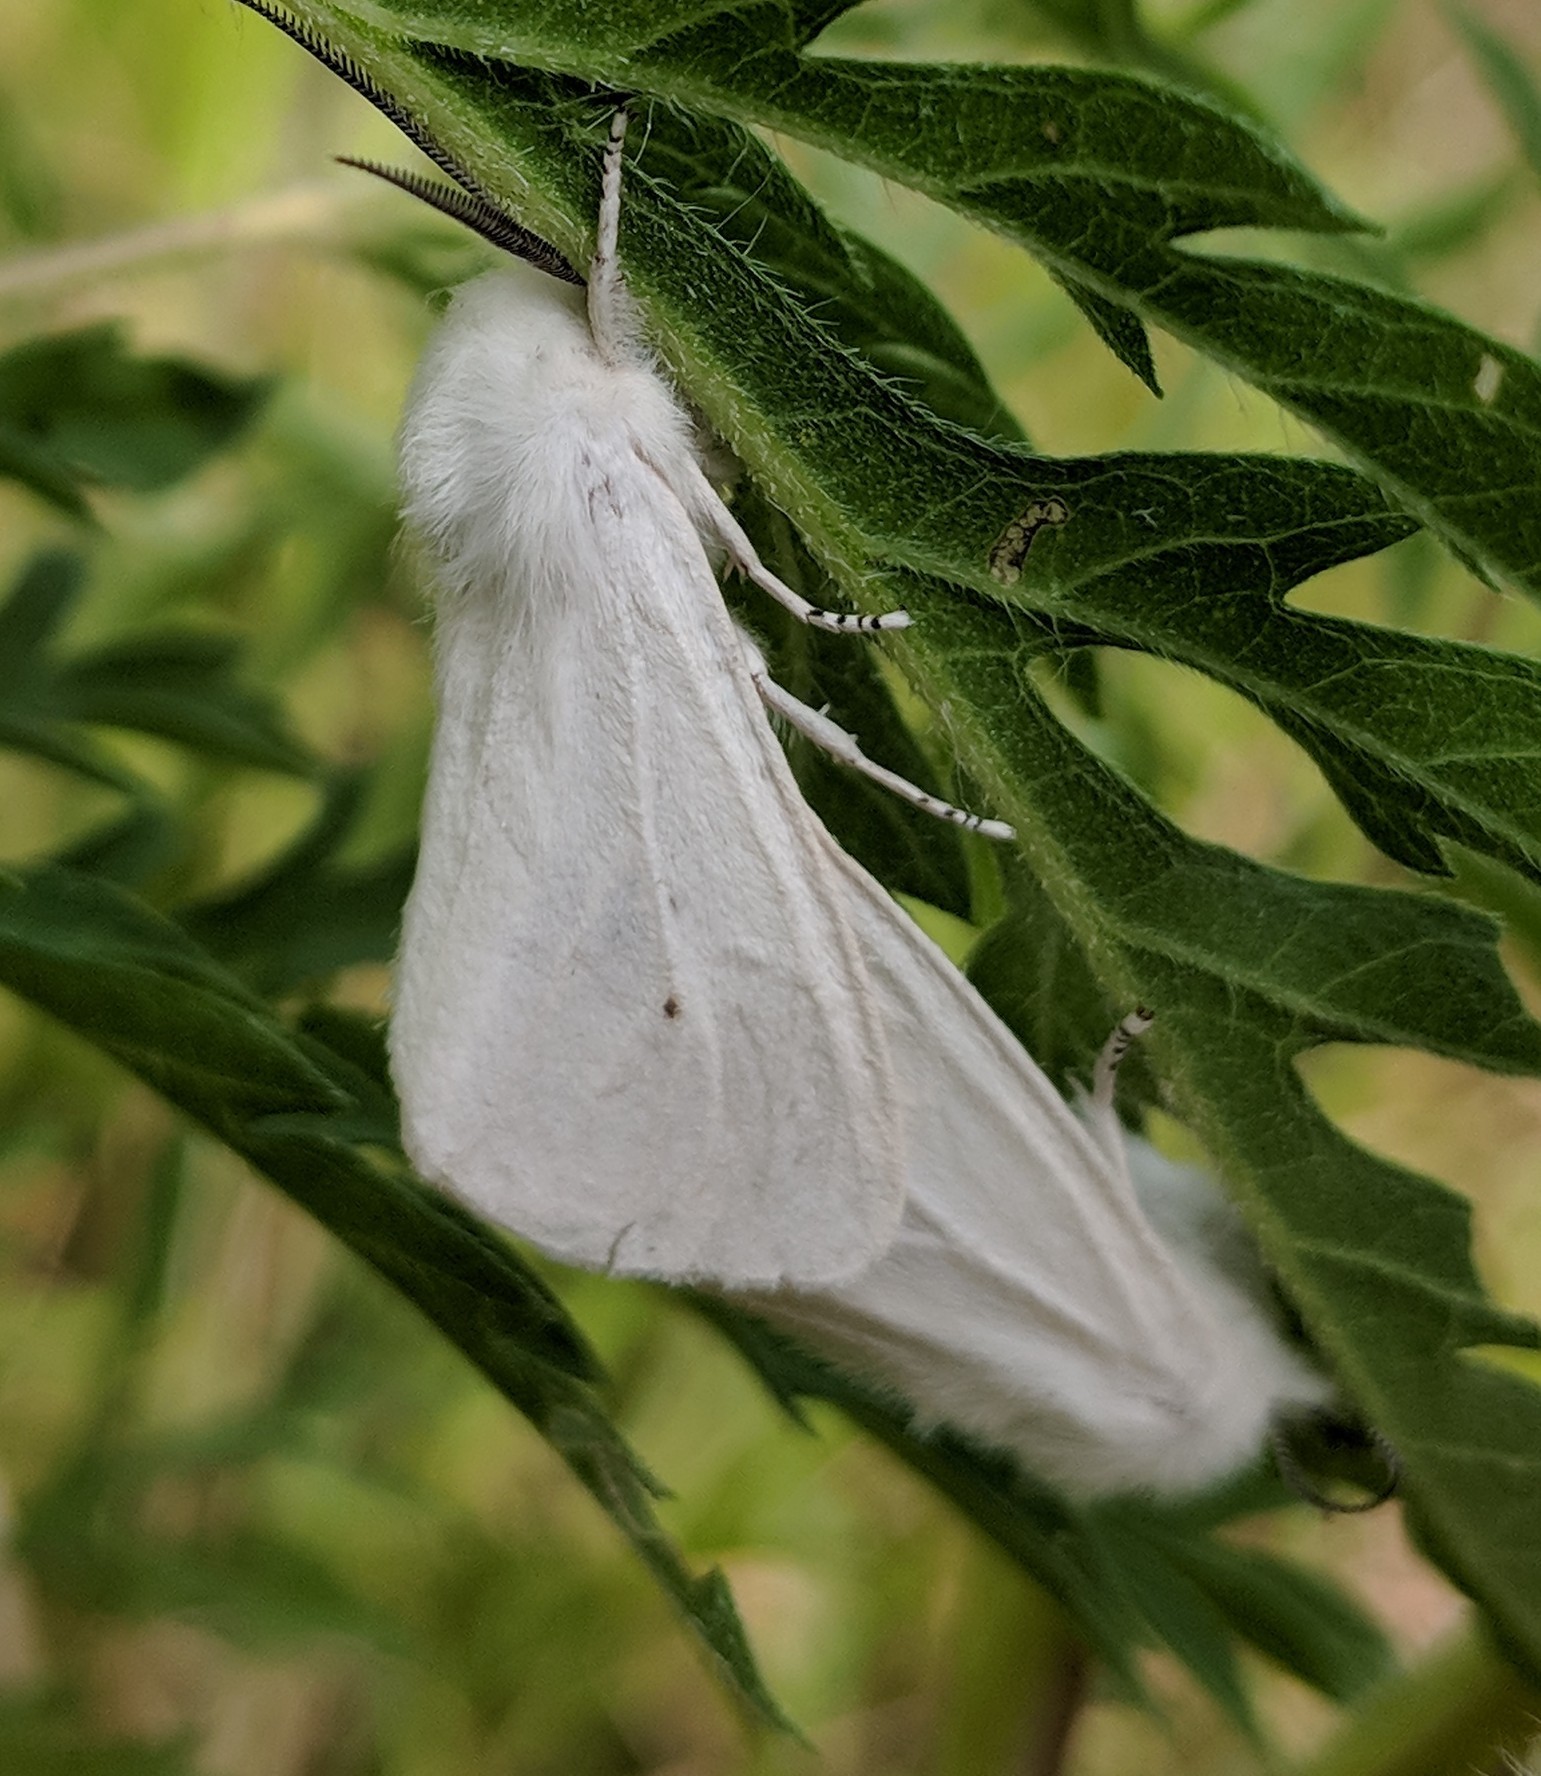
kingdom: Animalia
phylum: Arthropoda
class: Insecta
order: Lepidoptera
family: Erebidae
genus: Spilosoma
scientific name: Spilosoma virginica
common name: Virginia tiger moth
